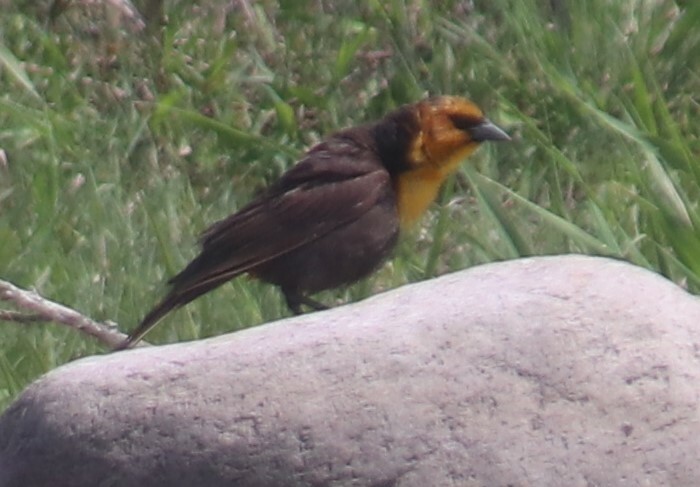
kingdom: Animalia
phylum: Chordata
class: Aves
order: Passeriformes
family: Icteridae
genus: Xanthocephalus
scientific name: Xanthocephalus xanthocephalus
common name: Yellow-headed blackbird
